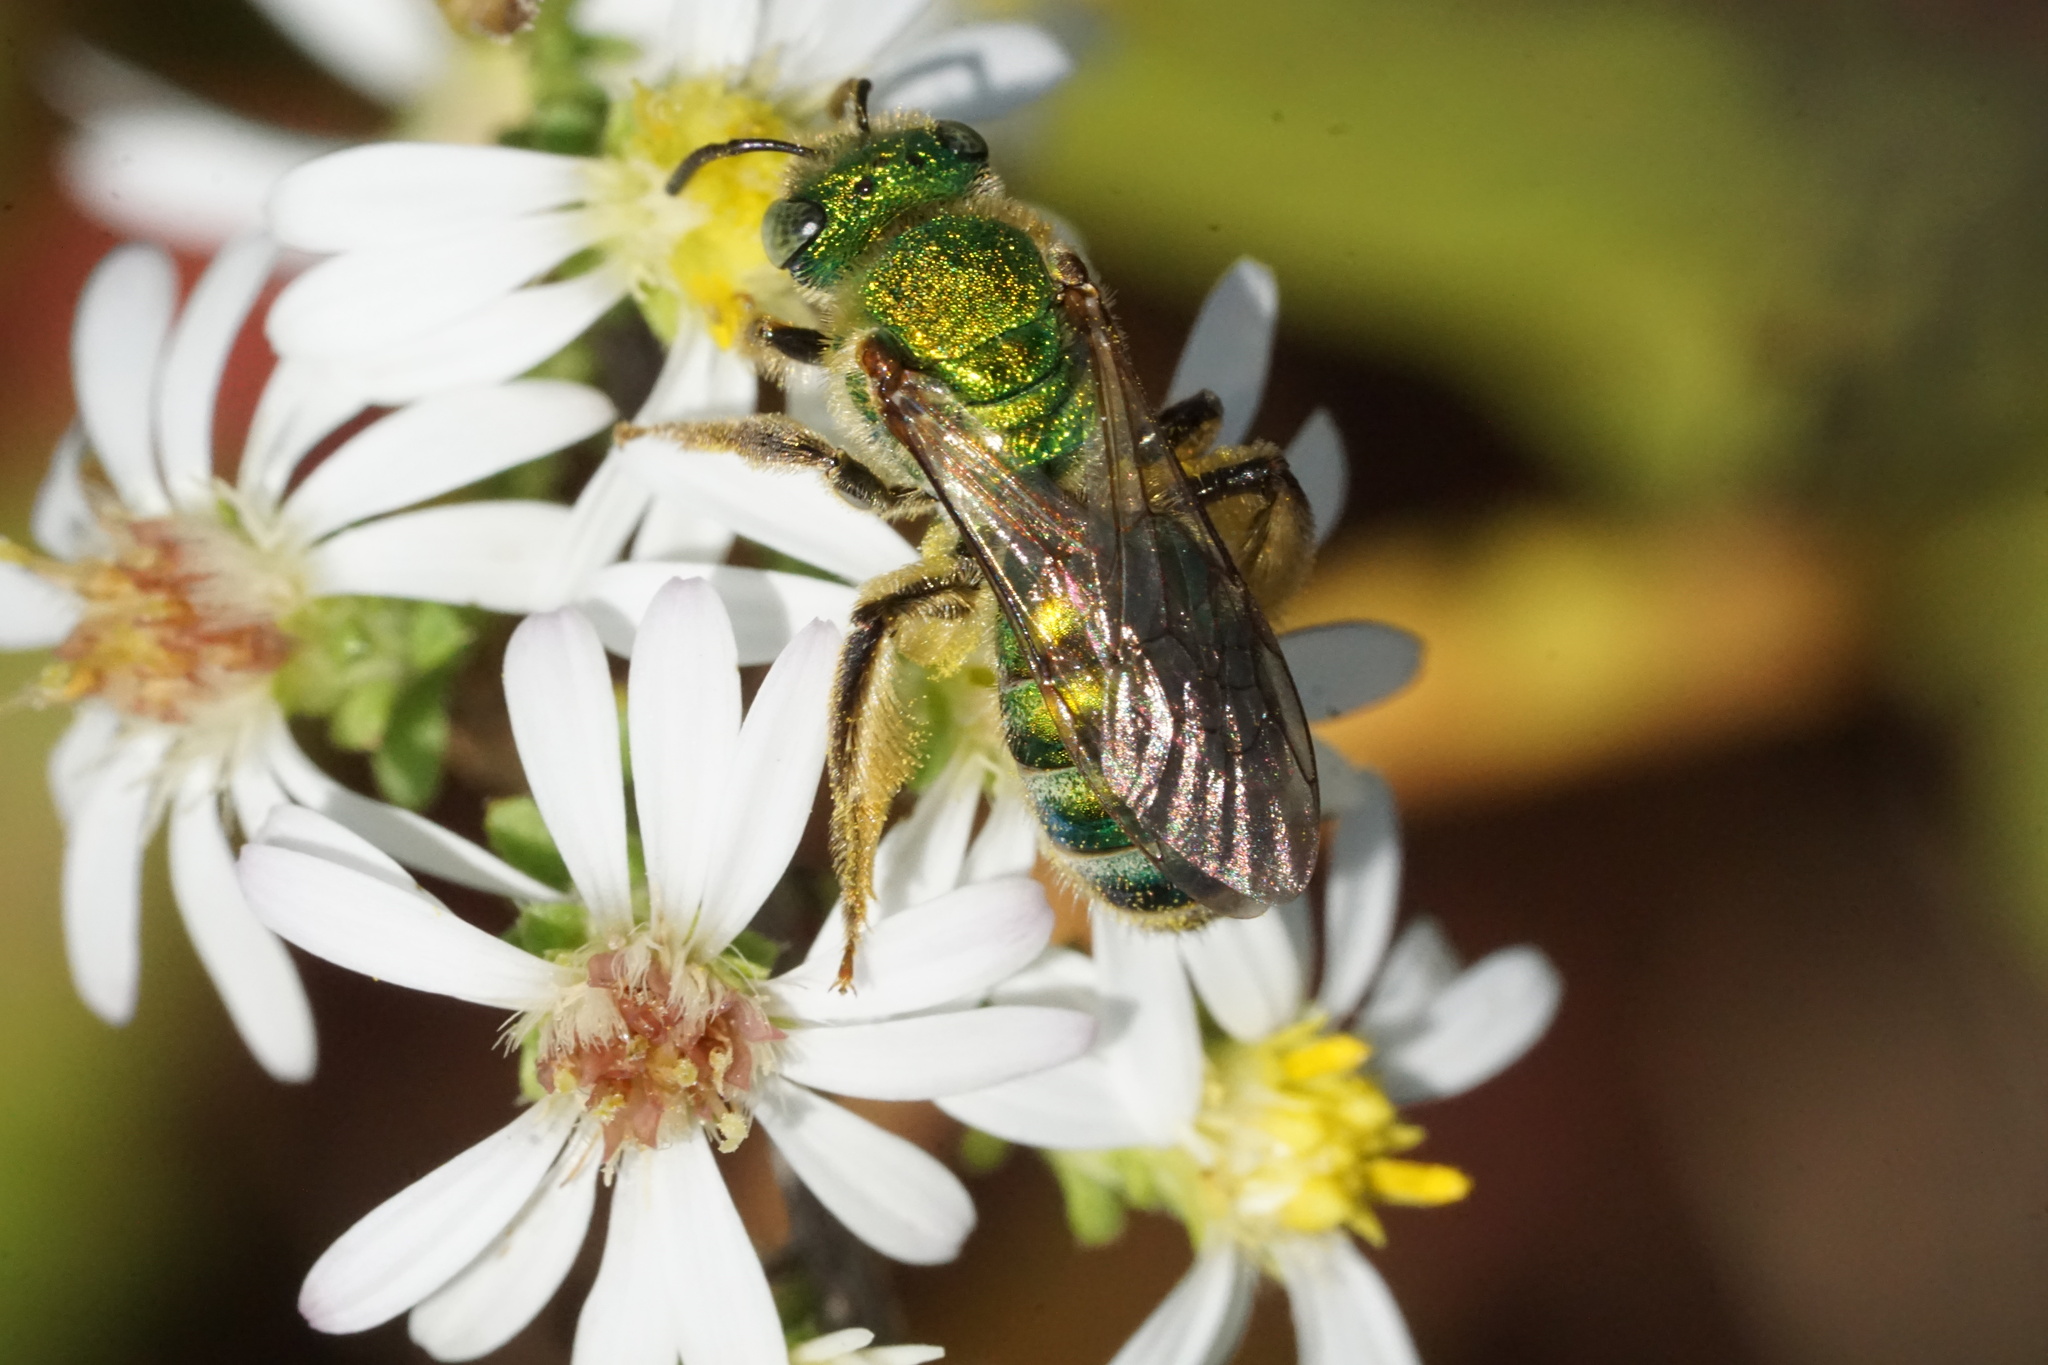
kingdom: Animalia
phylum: Arthropoda
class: Insecta
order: Hymenoptera
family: Halictidae
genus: Agapostemon
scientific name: Agapostemon sericeus
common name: Silky striped sweat bee
